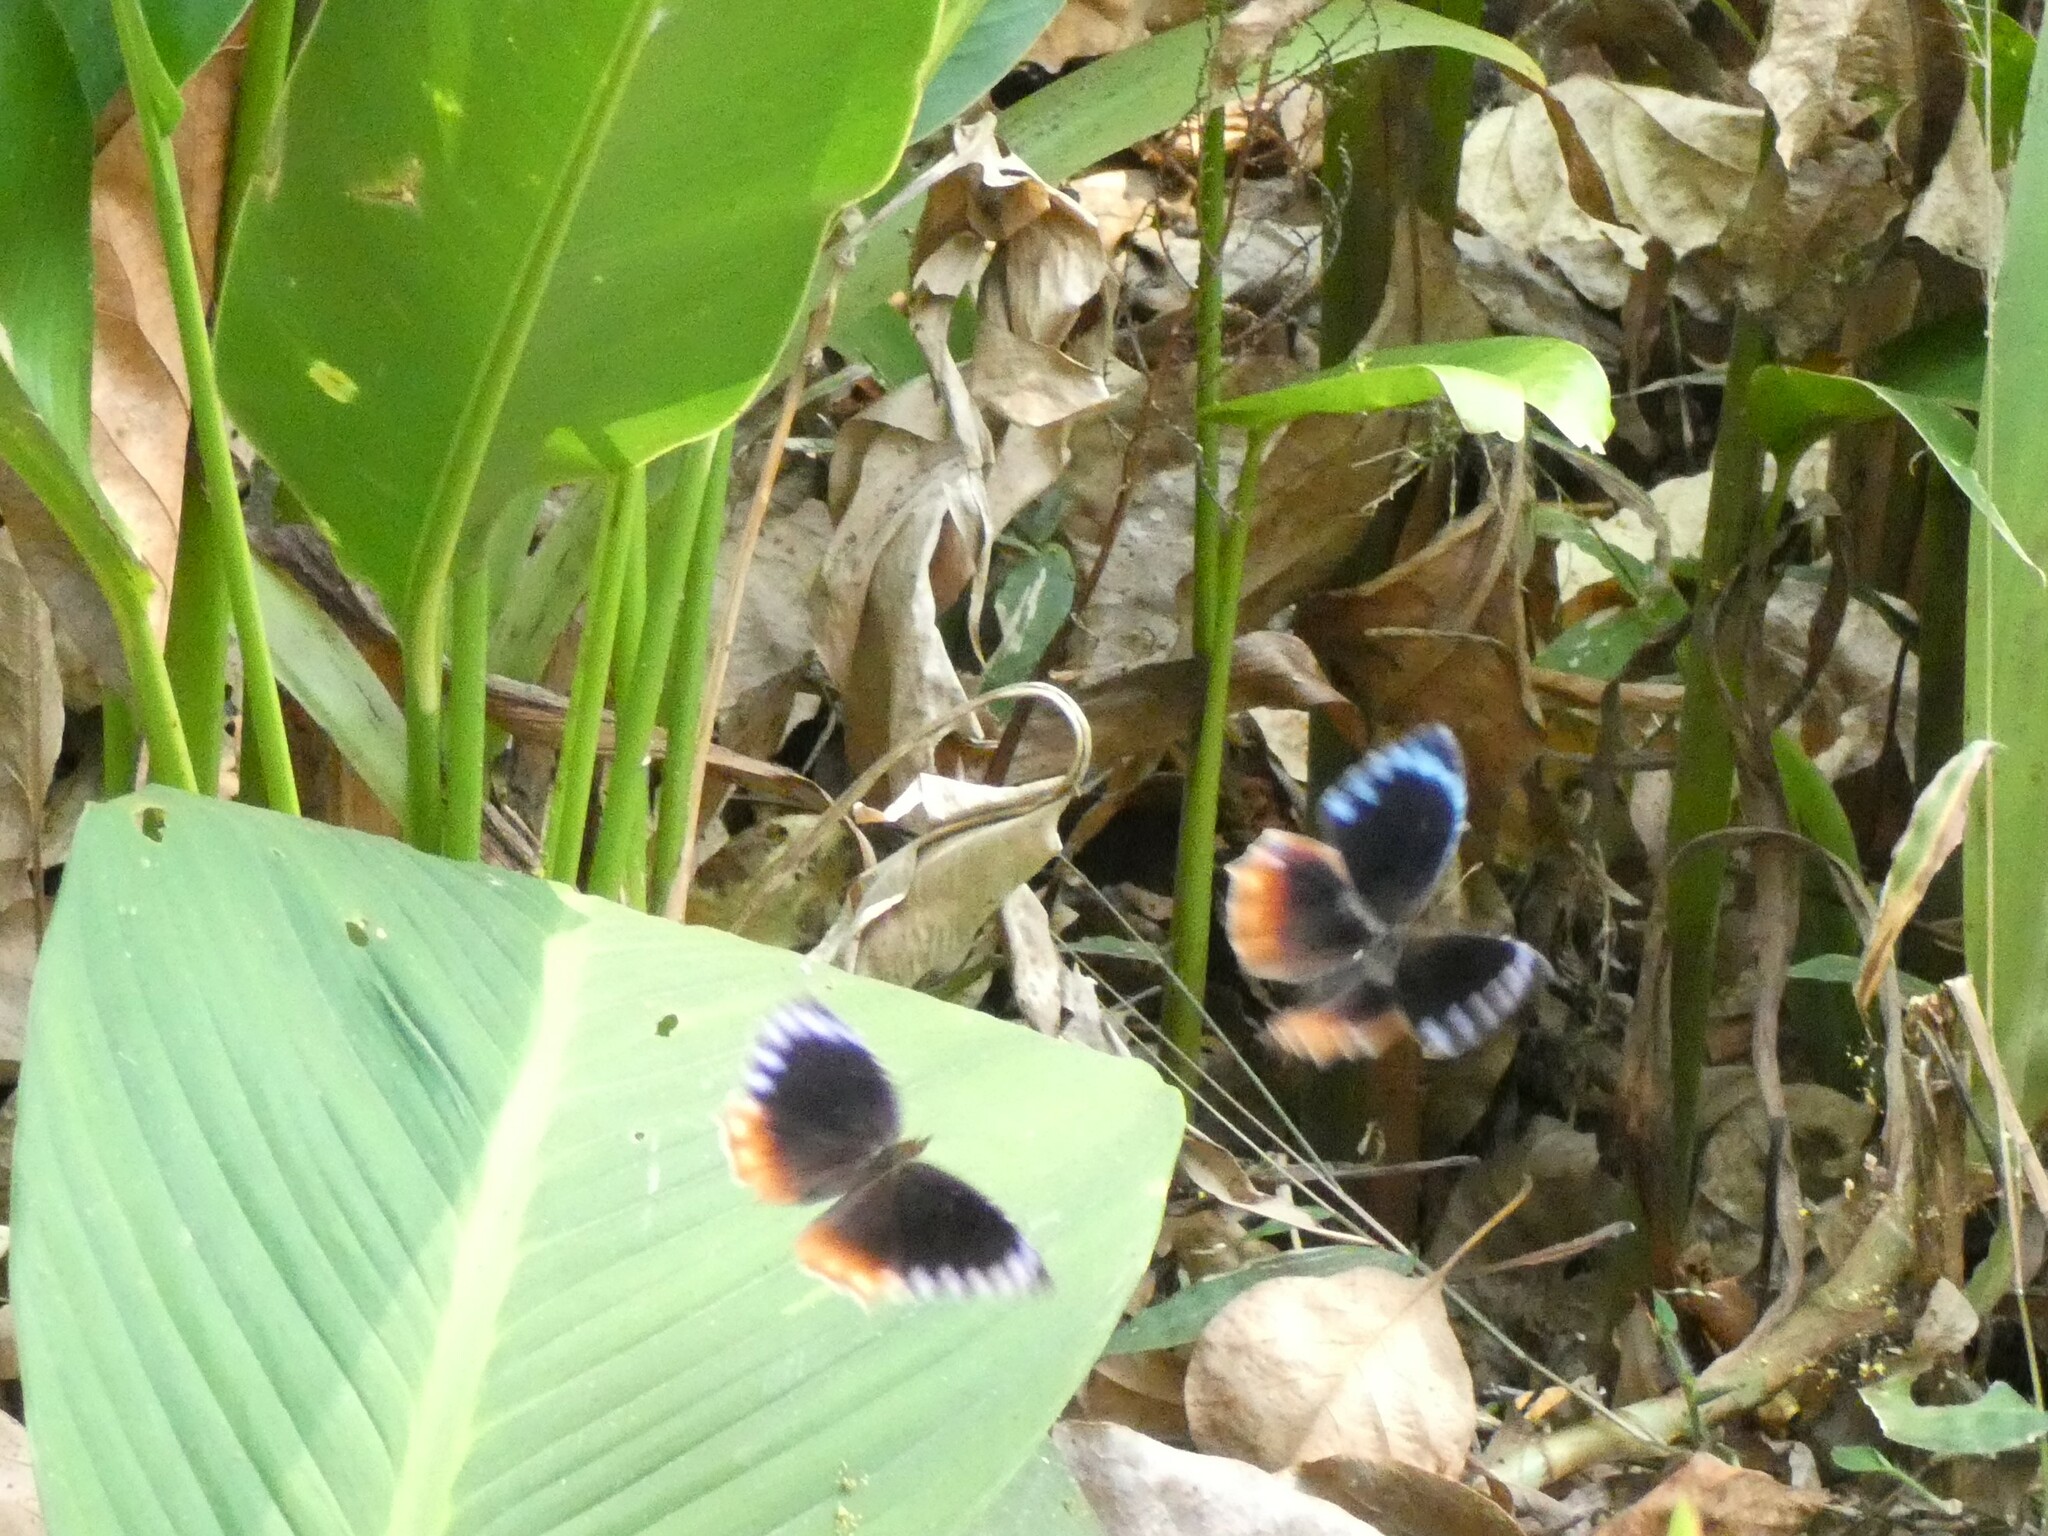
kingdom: Animalia
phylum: Arthropoda
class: Insecta
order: Lepidoptera
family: Nymphalidae
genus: Elymnias
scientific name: Elymnias hypermnestra
